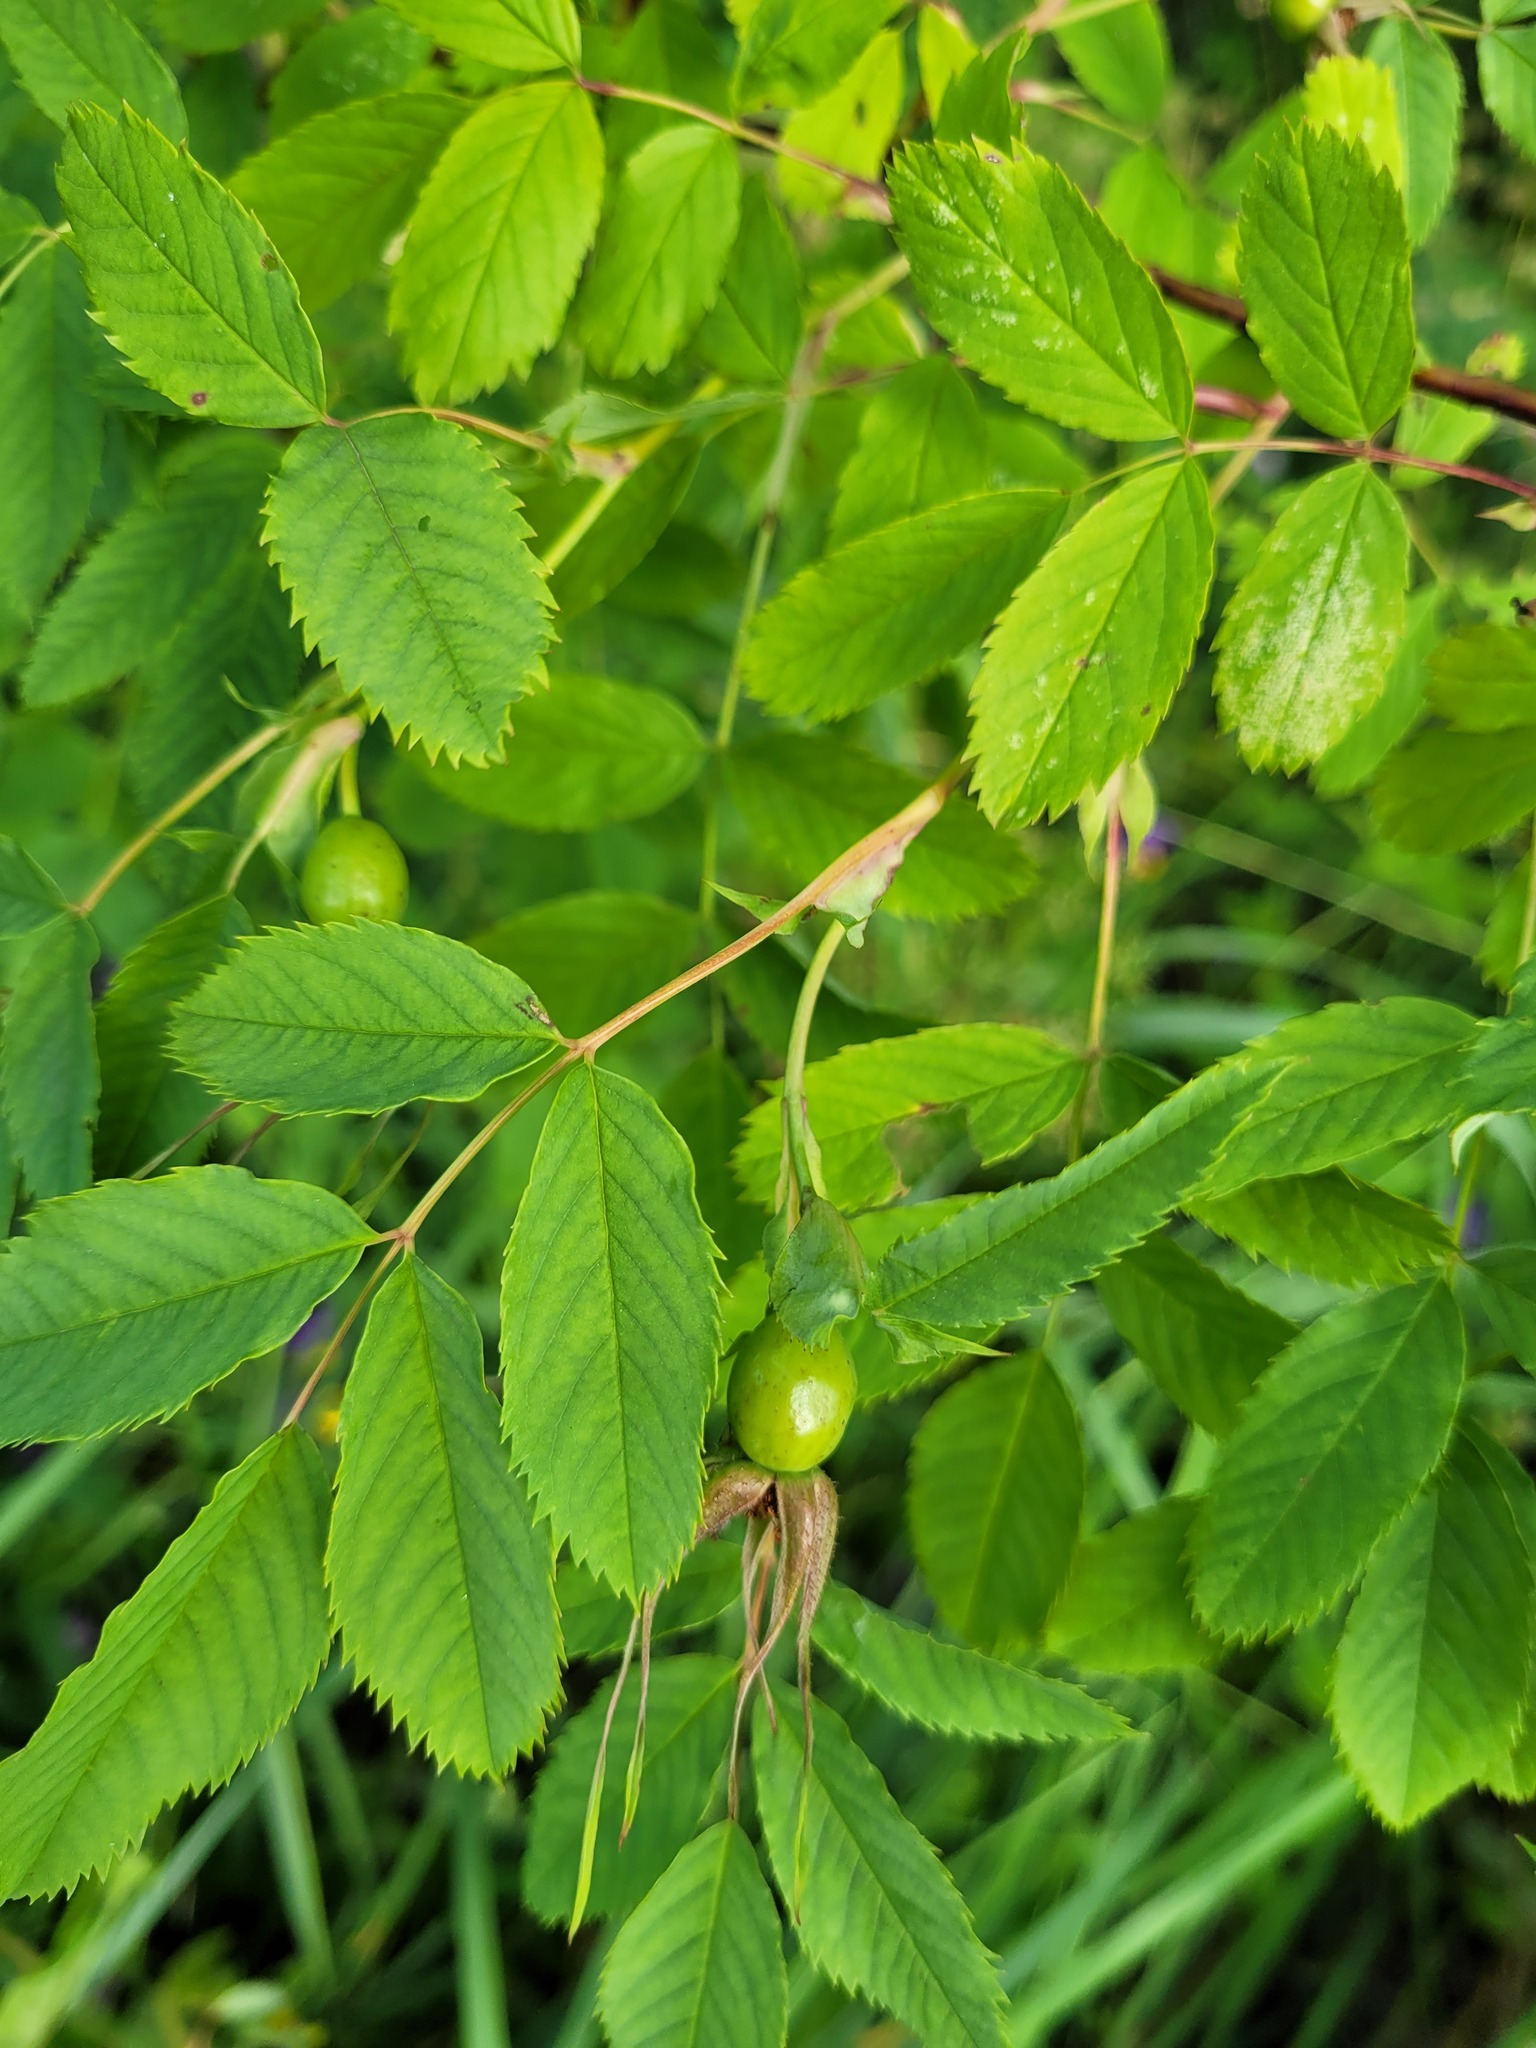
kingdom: Plantae
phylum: Tracheophyta
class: Magnoliopsida
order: Rosales
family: Rosaceae
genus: Rosa
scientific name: Rosa glabrifolia
